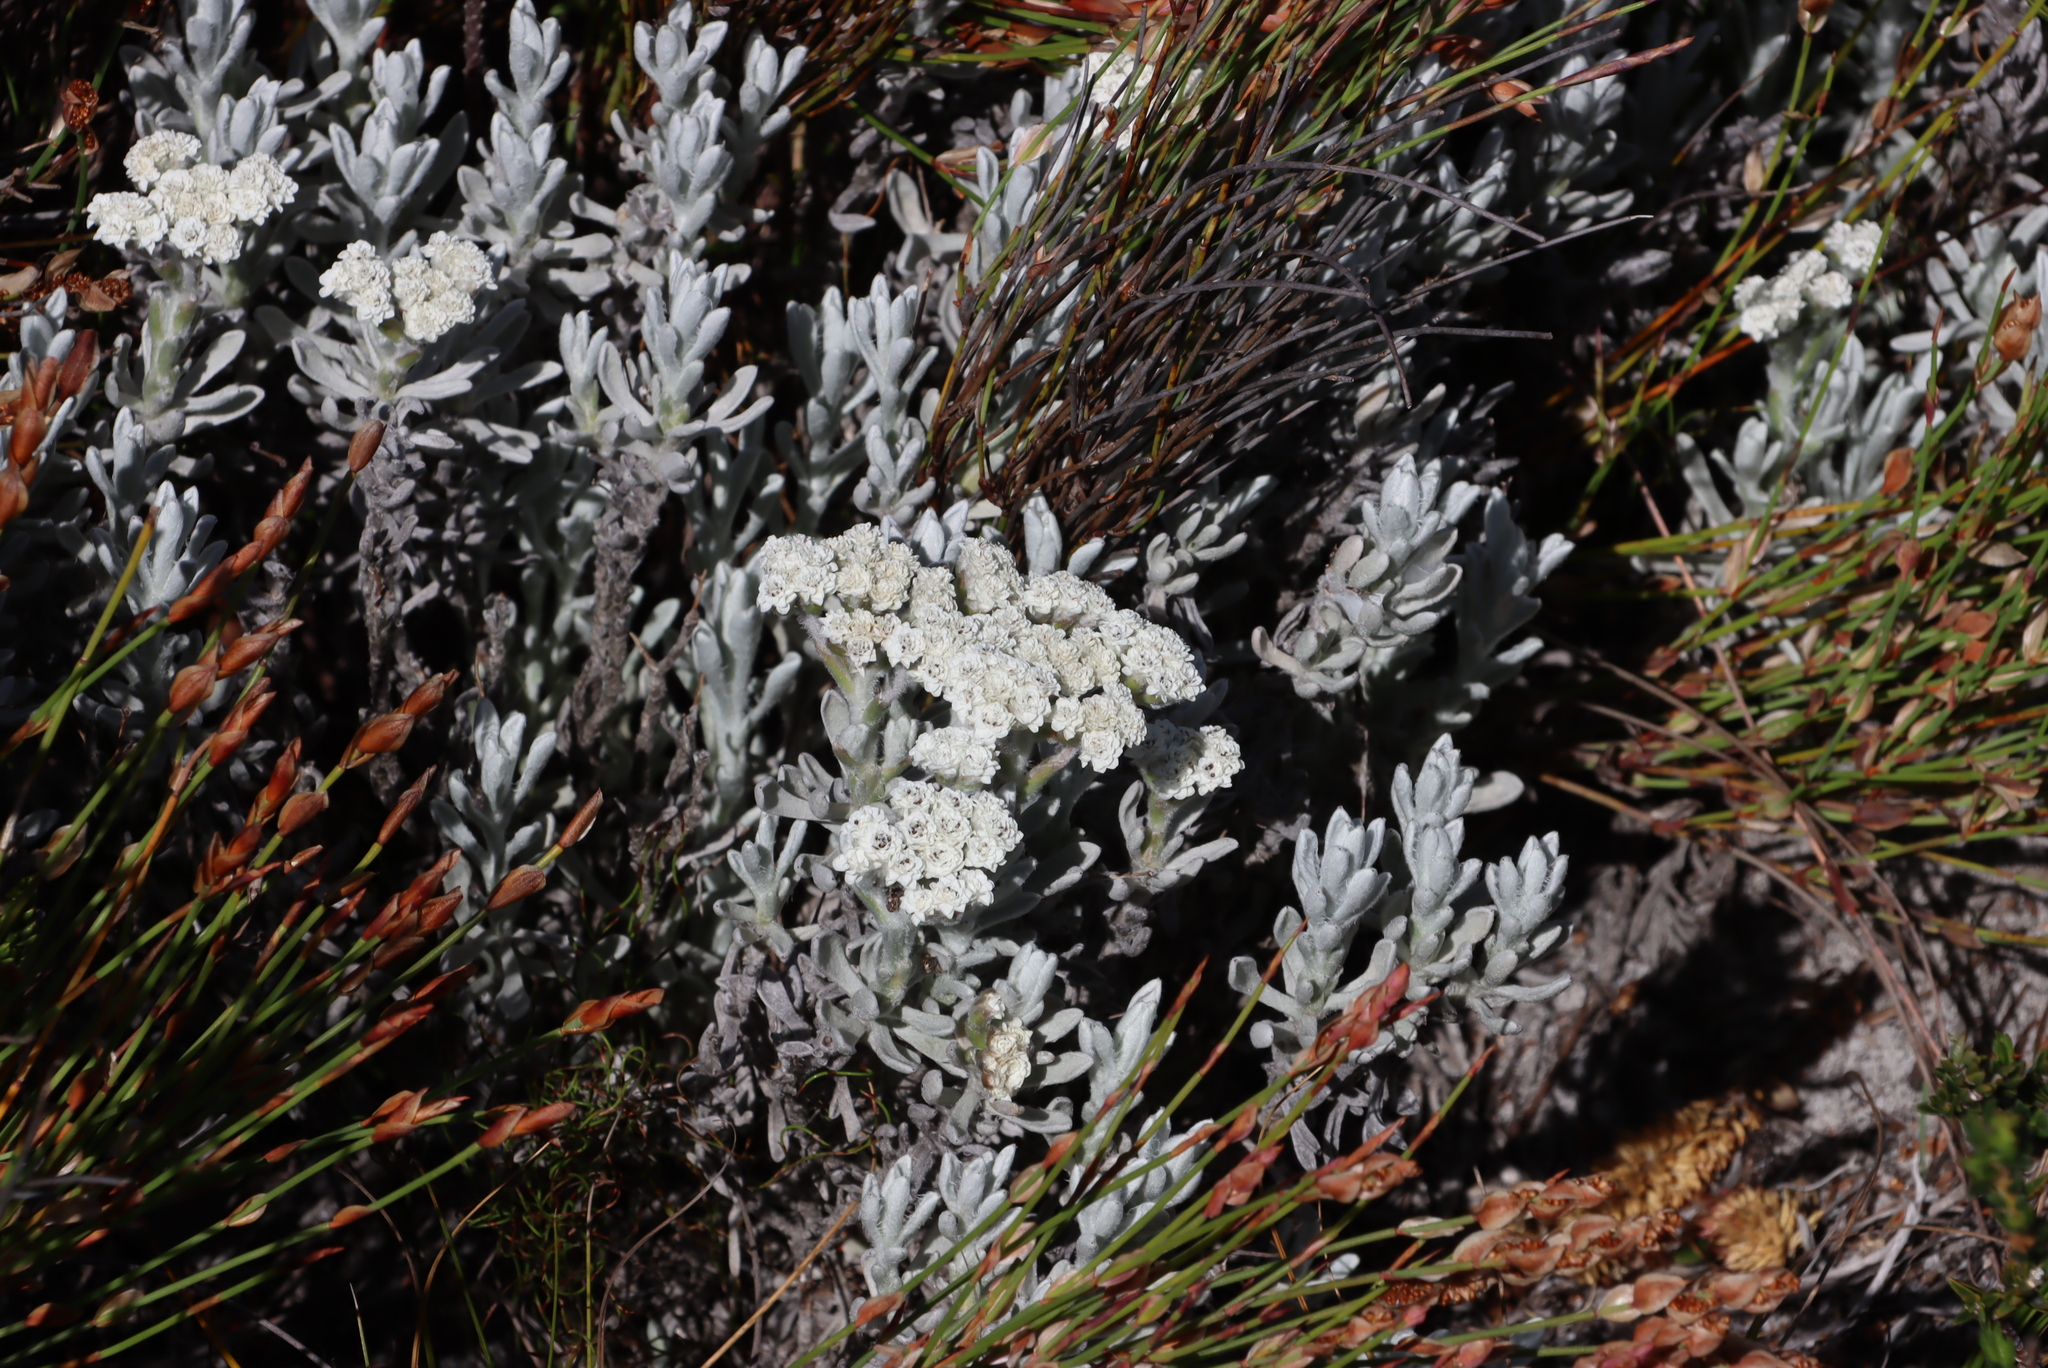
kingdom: Plantae
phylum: Tracheophyta
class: Magnoliopsida
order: Asterales
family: Asteraceae
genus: Petalacte
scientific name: Petalacte coronata
